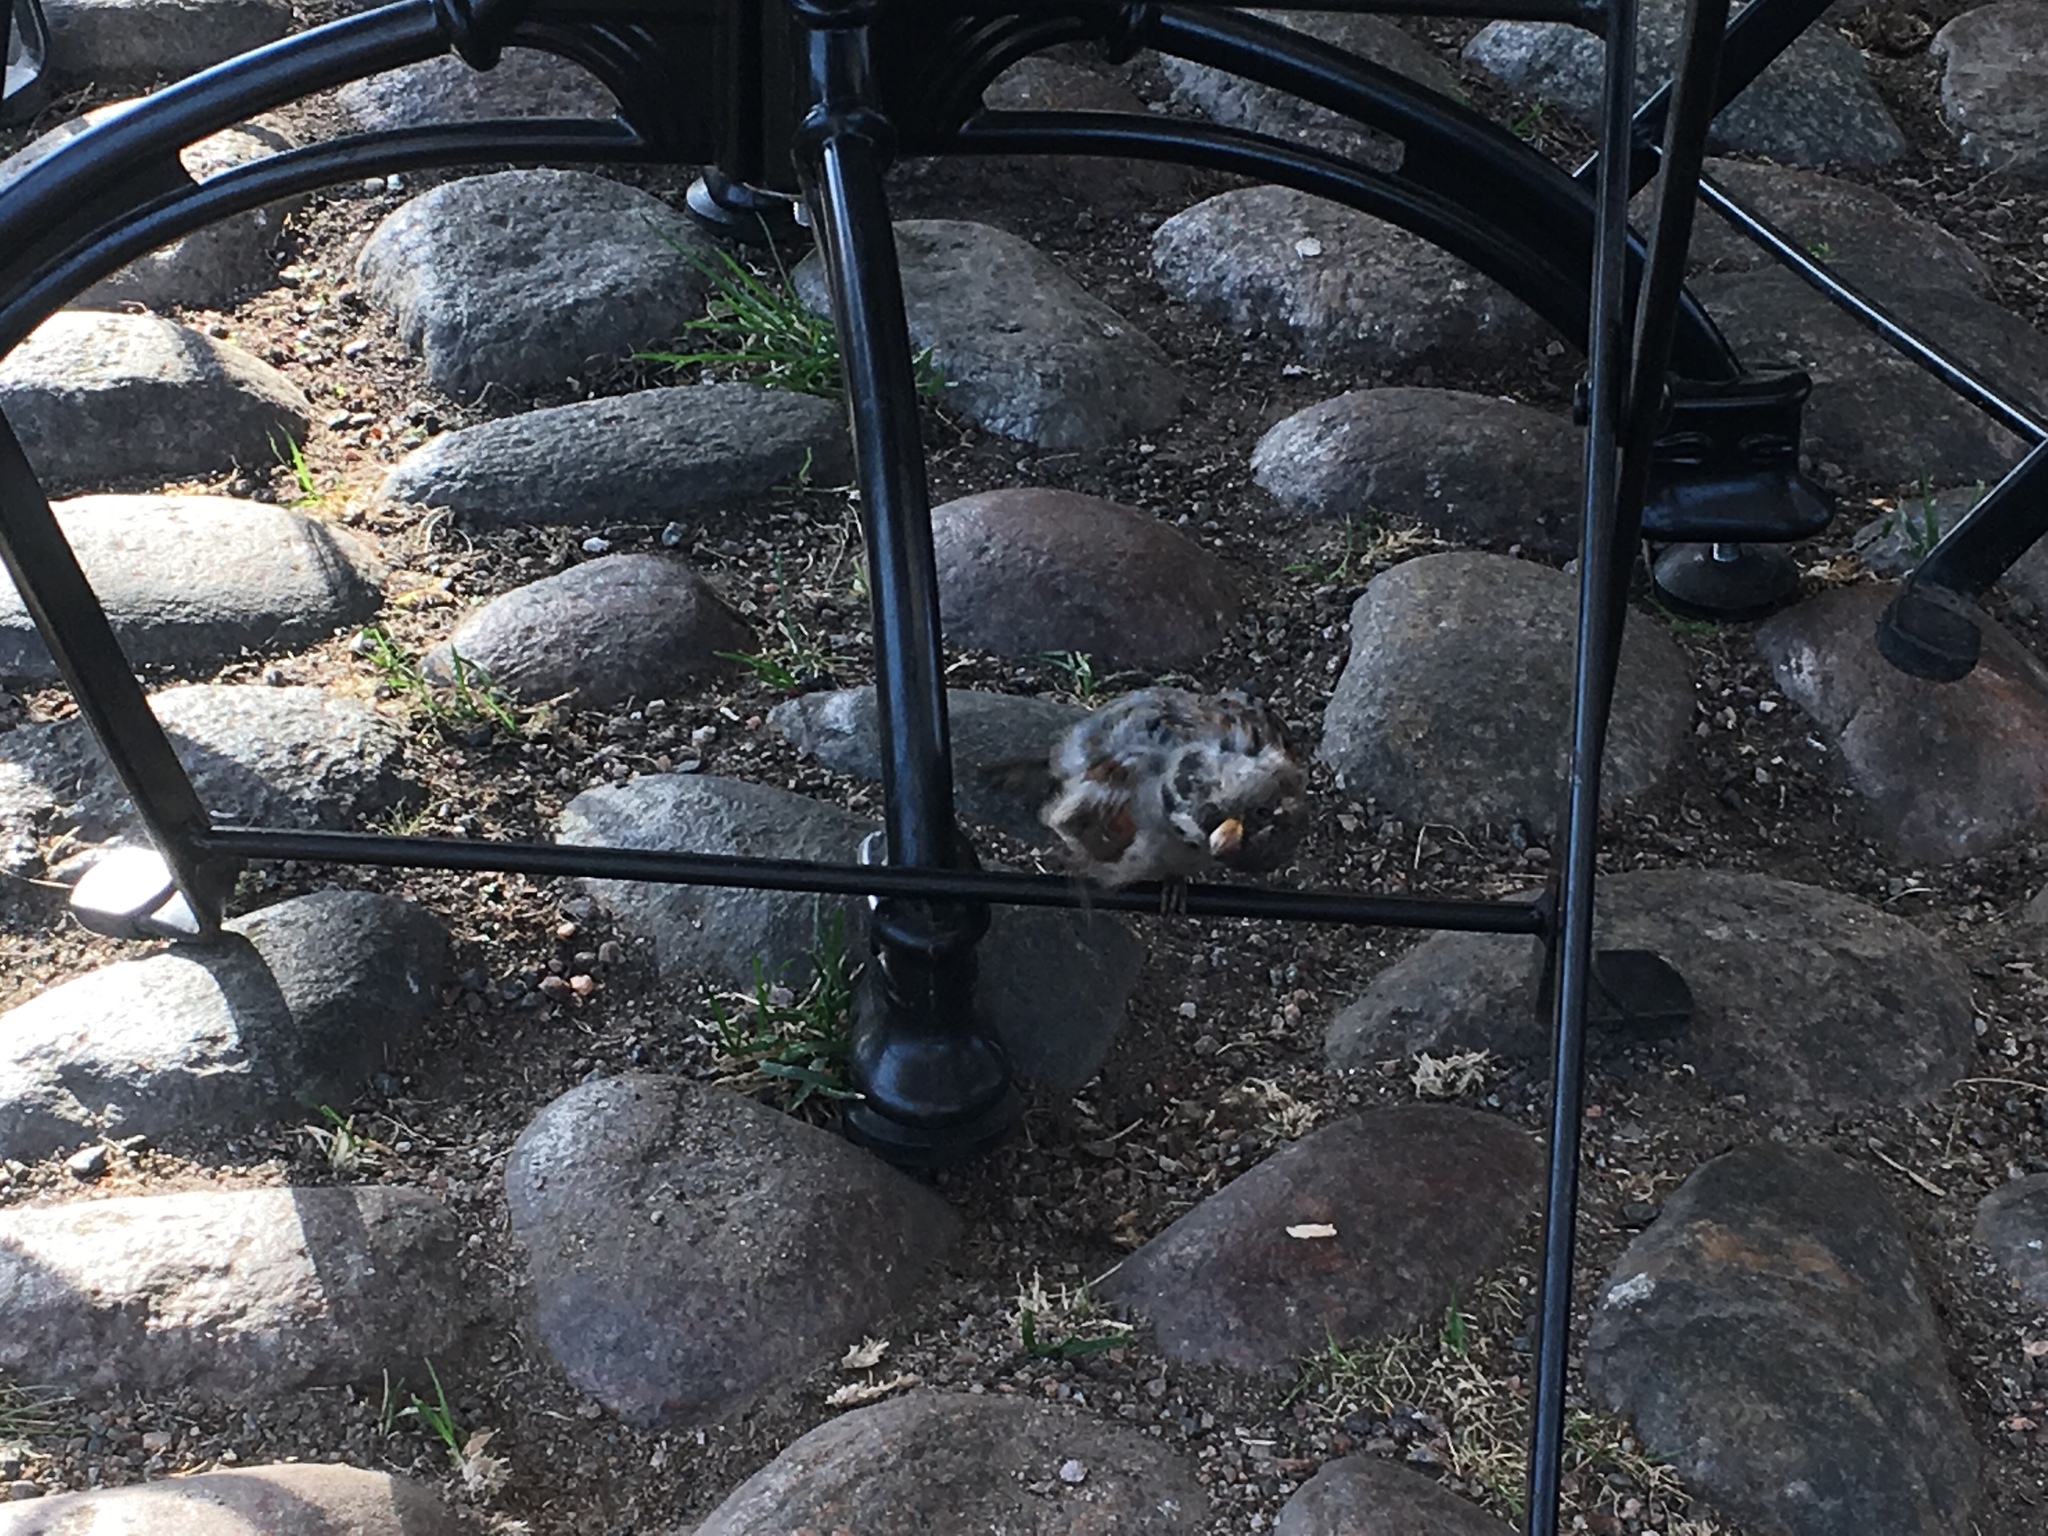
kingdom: Animalia
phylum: Chordata
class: Aves
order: Passeriformes
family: Passeridae
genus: Passer
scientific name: Passer domesticus
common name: House sparrow
